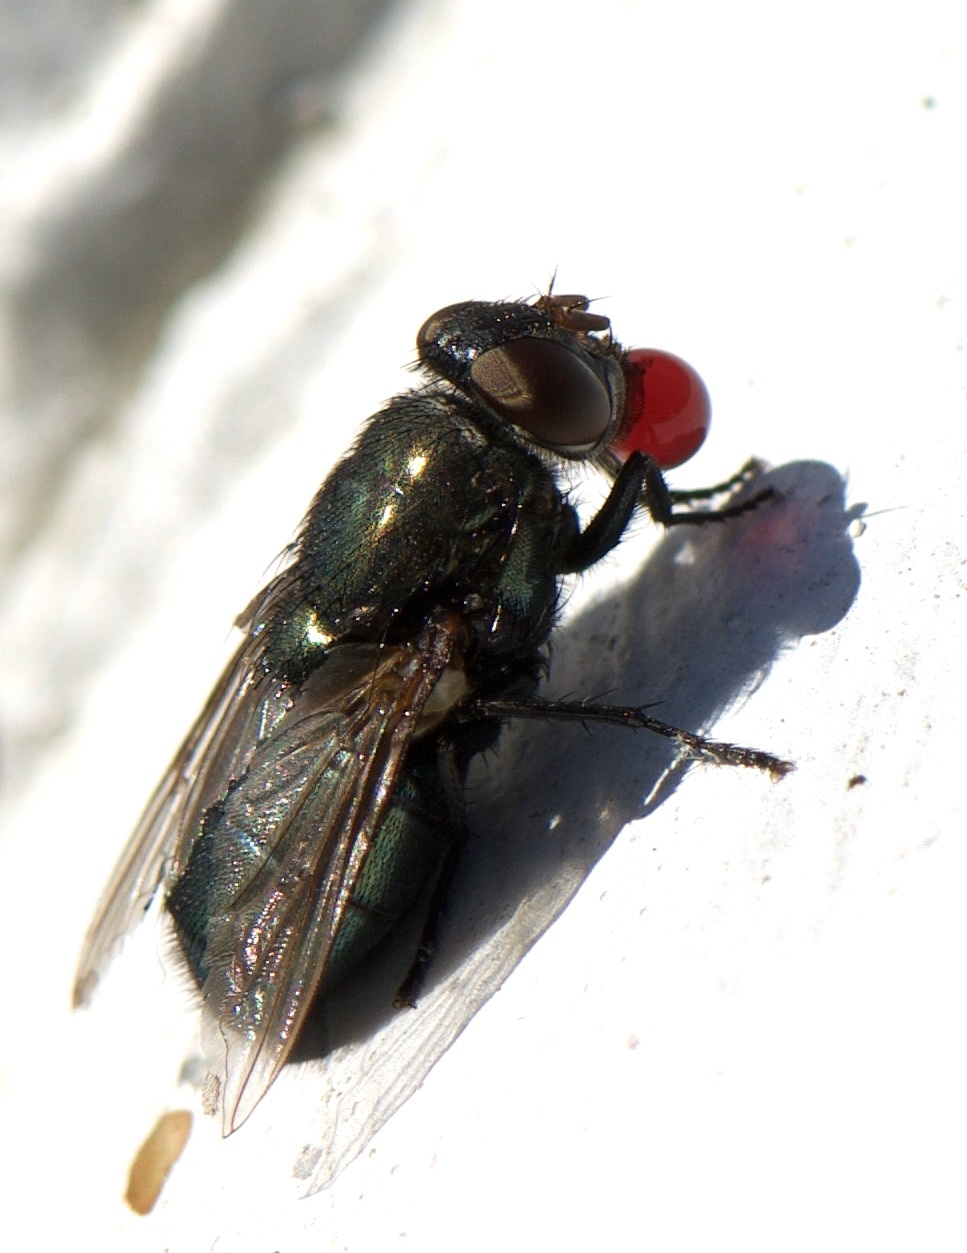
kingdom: Animalia
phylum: Arthropoda
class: Insecta
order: Diptera
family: Calliphoridae
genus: Phormia
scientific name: Phormia regina
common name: Black blow fly
